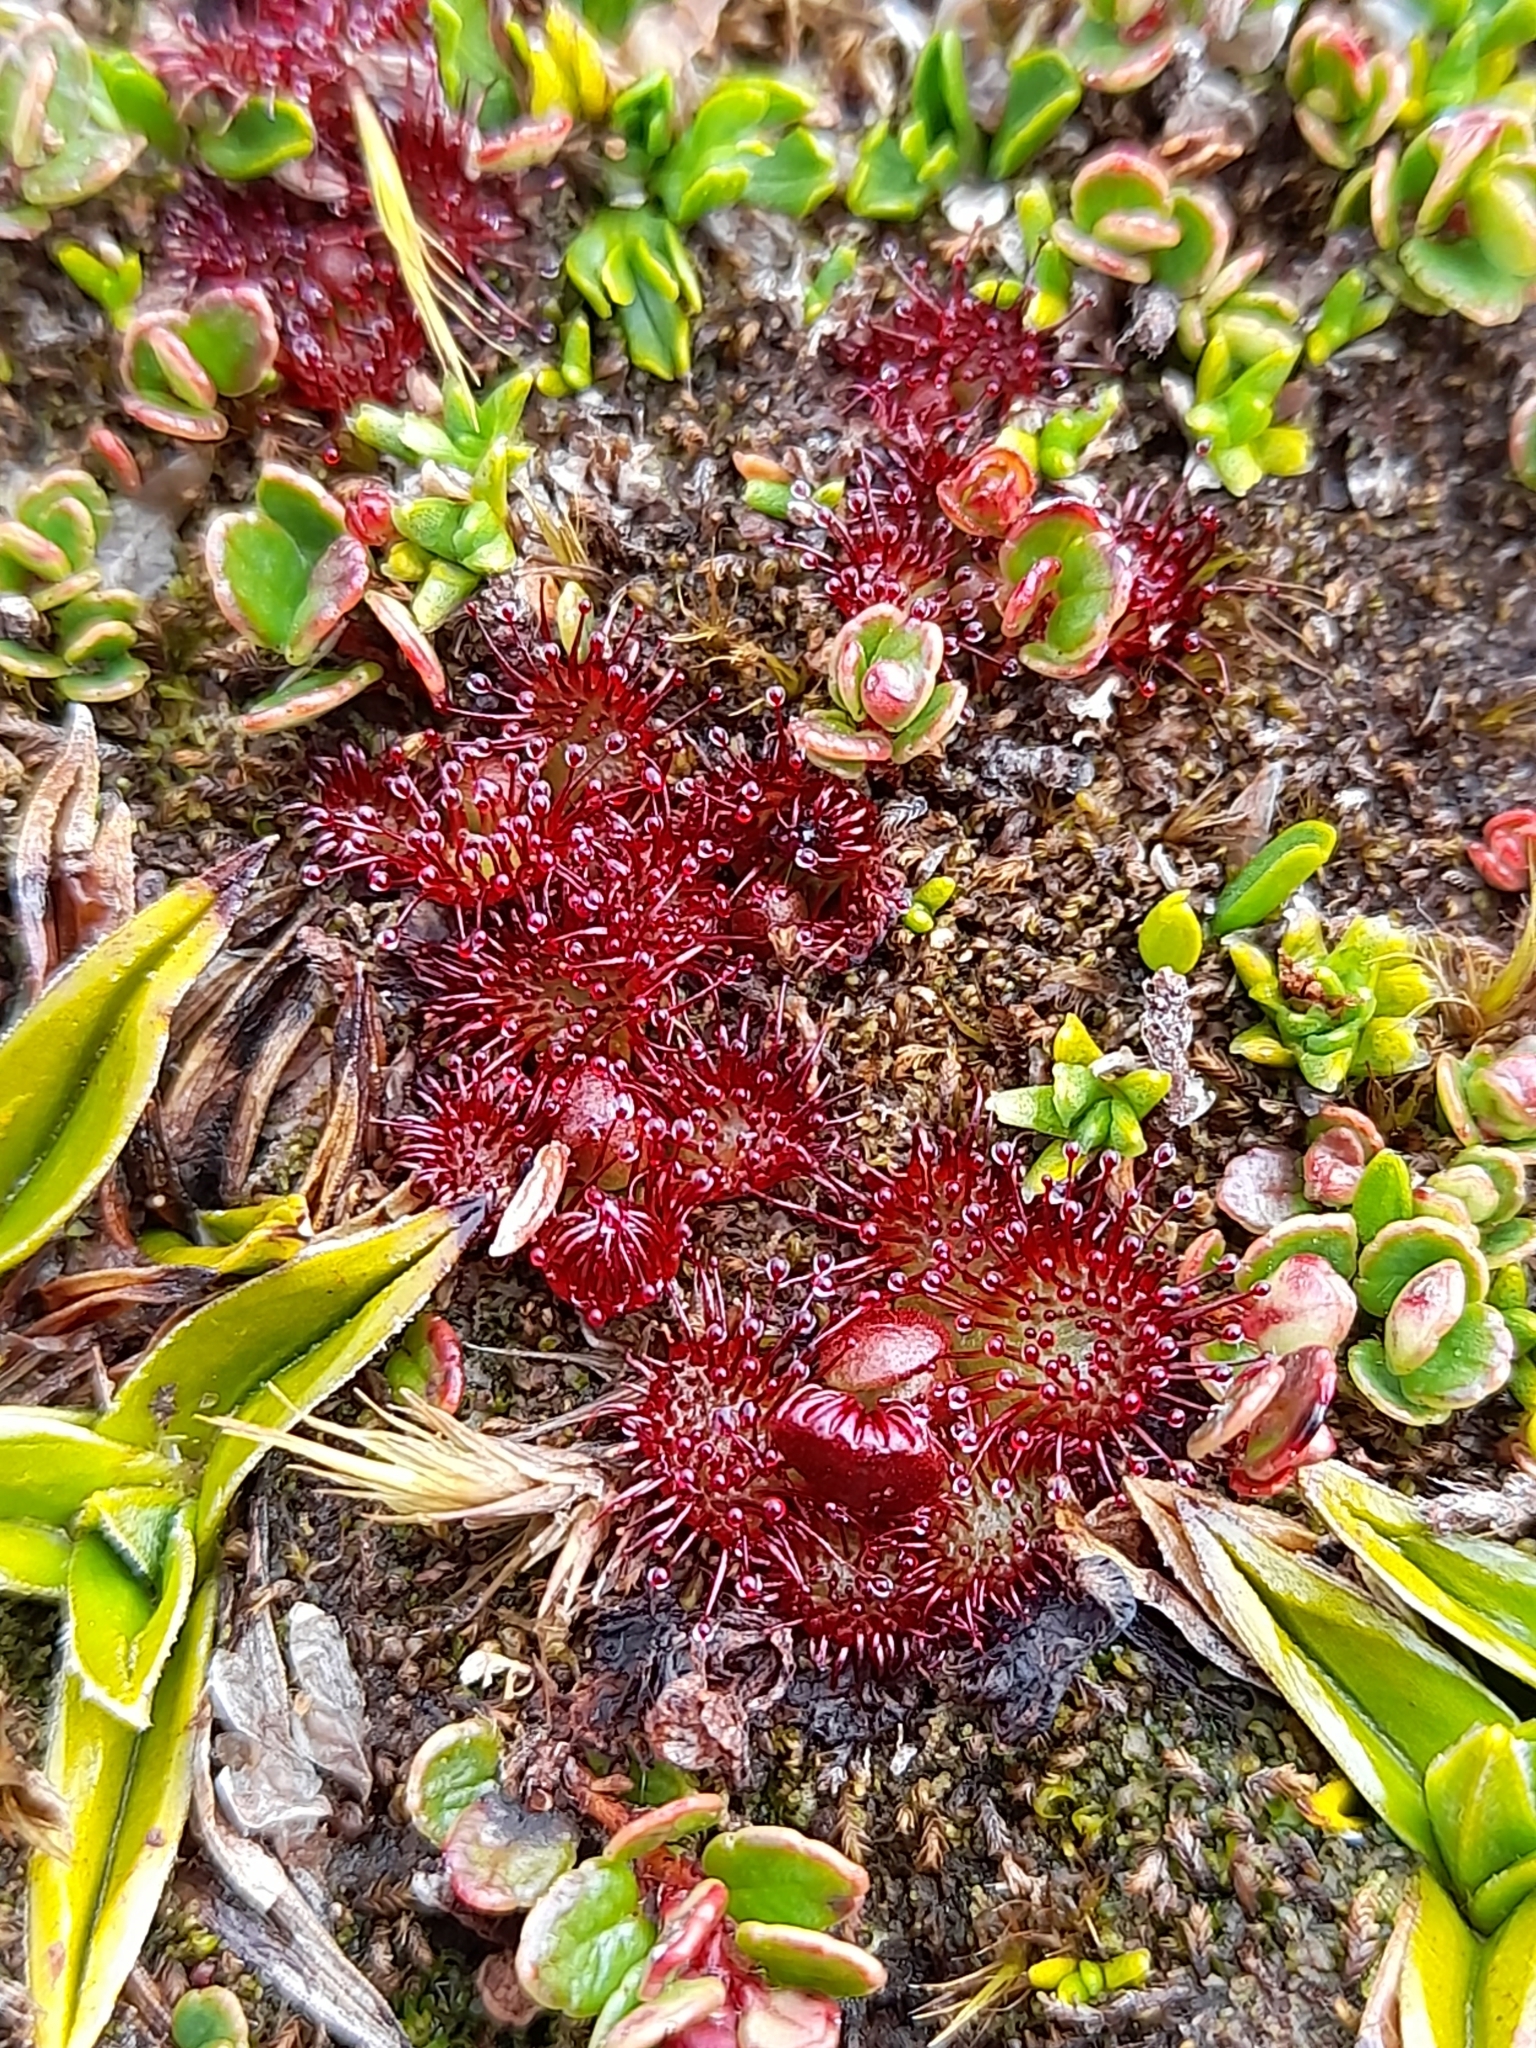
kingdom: Plantae
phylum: Tracheophyta
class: Magnoliopsida
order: Caryophyllales
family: Droseraceae
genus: Drosera
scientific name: Drosera uniflora
